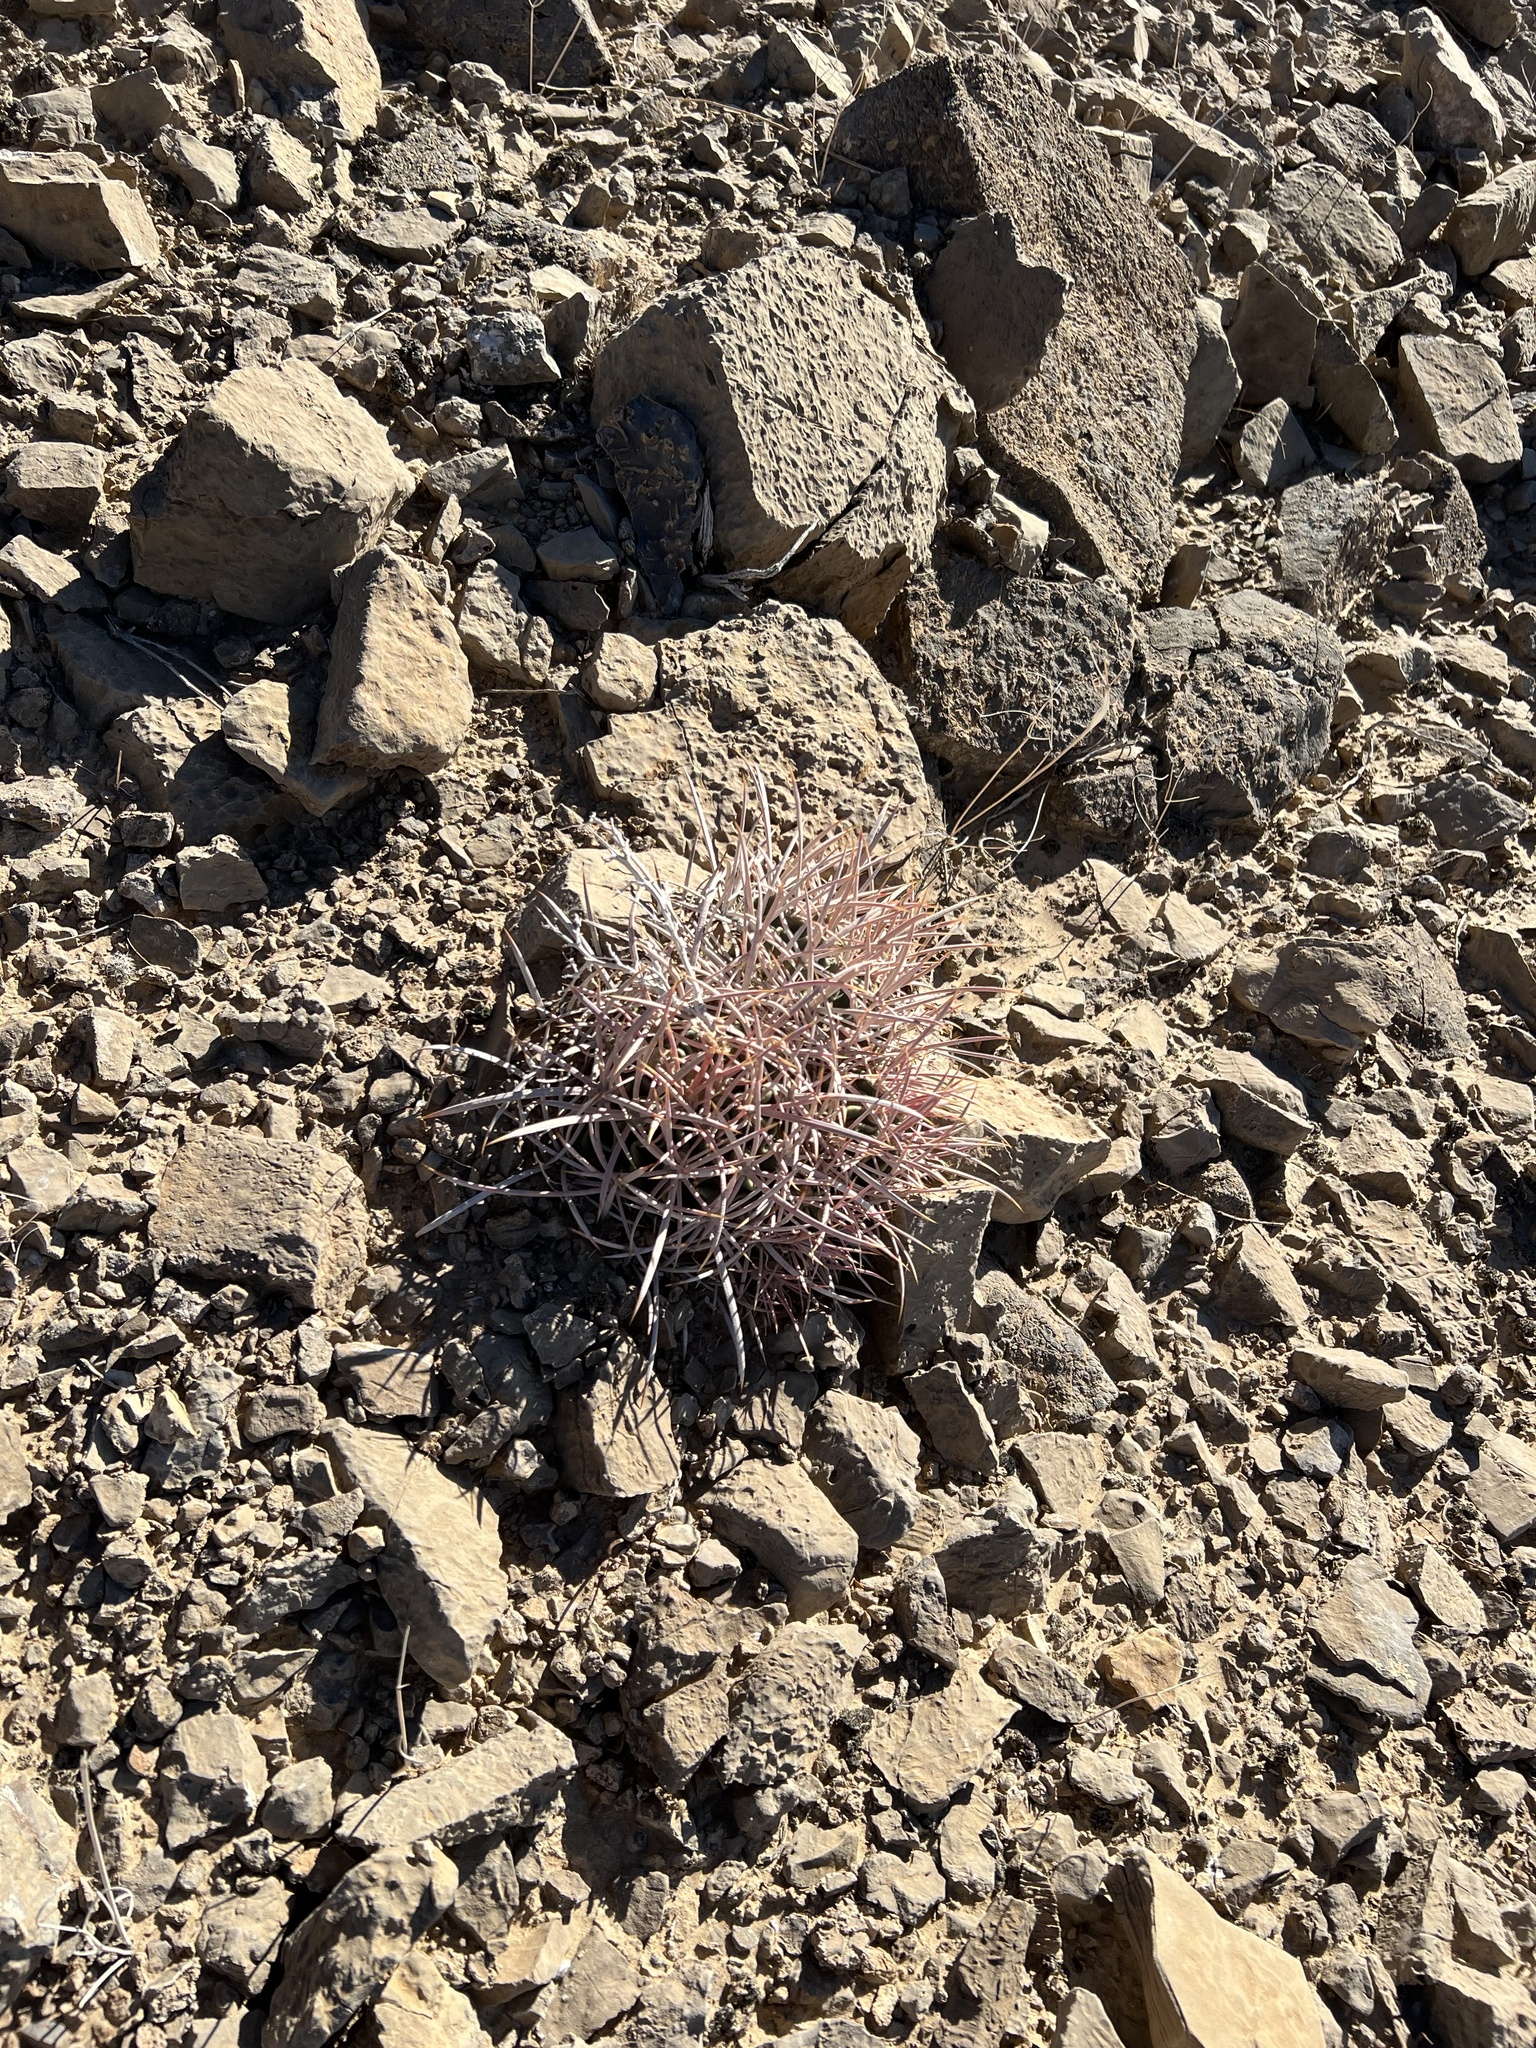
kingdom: Plantae
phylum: Tracheophyta
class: Magnoliopsida
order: Caryophyllales
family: Cactaceae
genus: Echinocactus
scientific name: Echinocactus polycephalus
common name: Cottontop cactus
